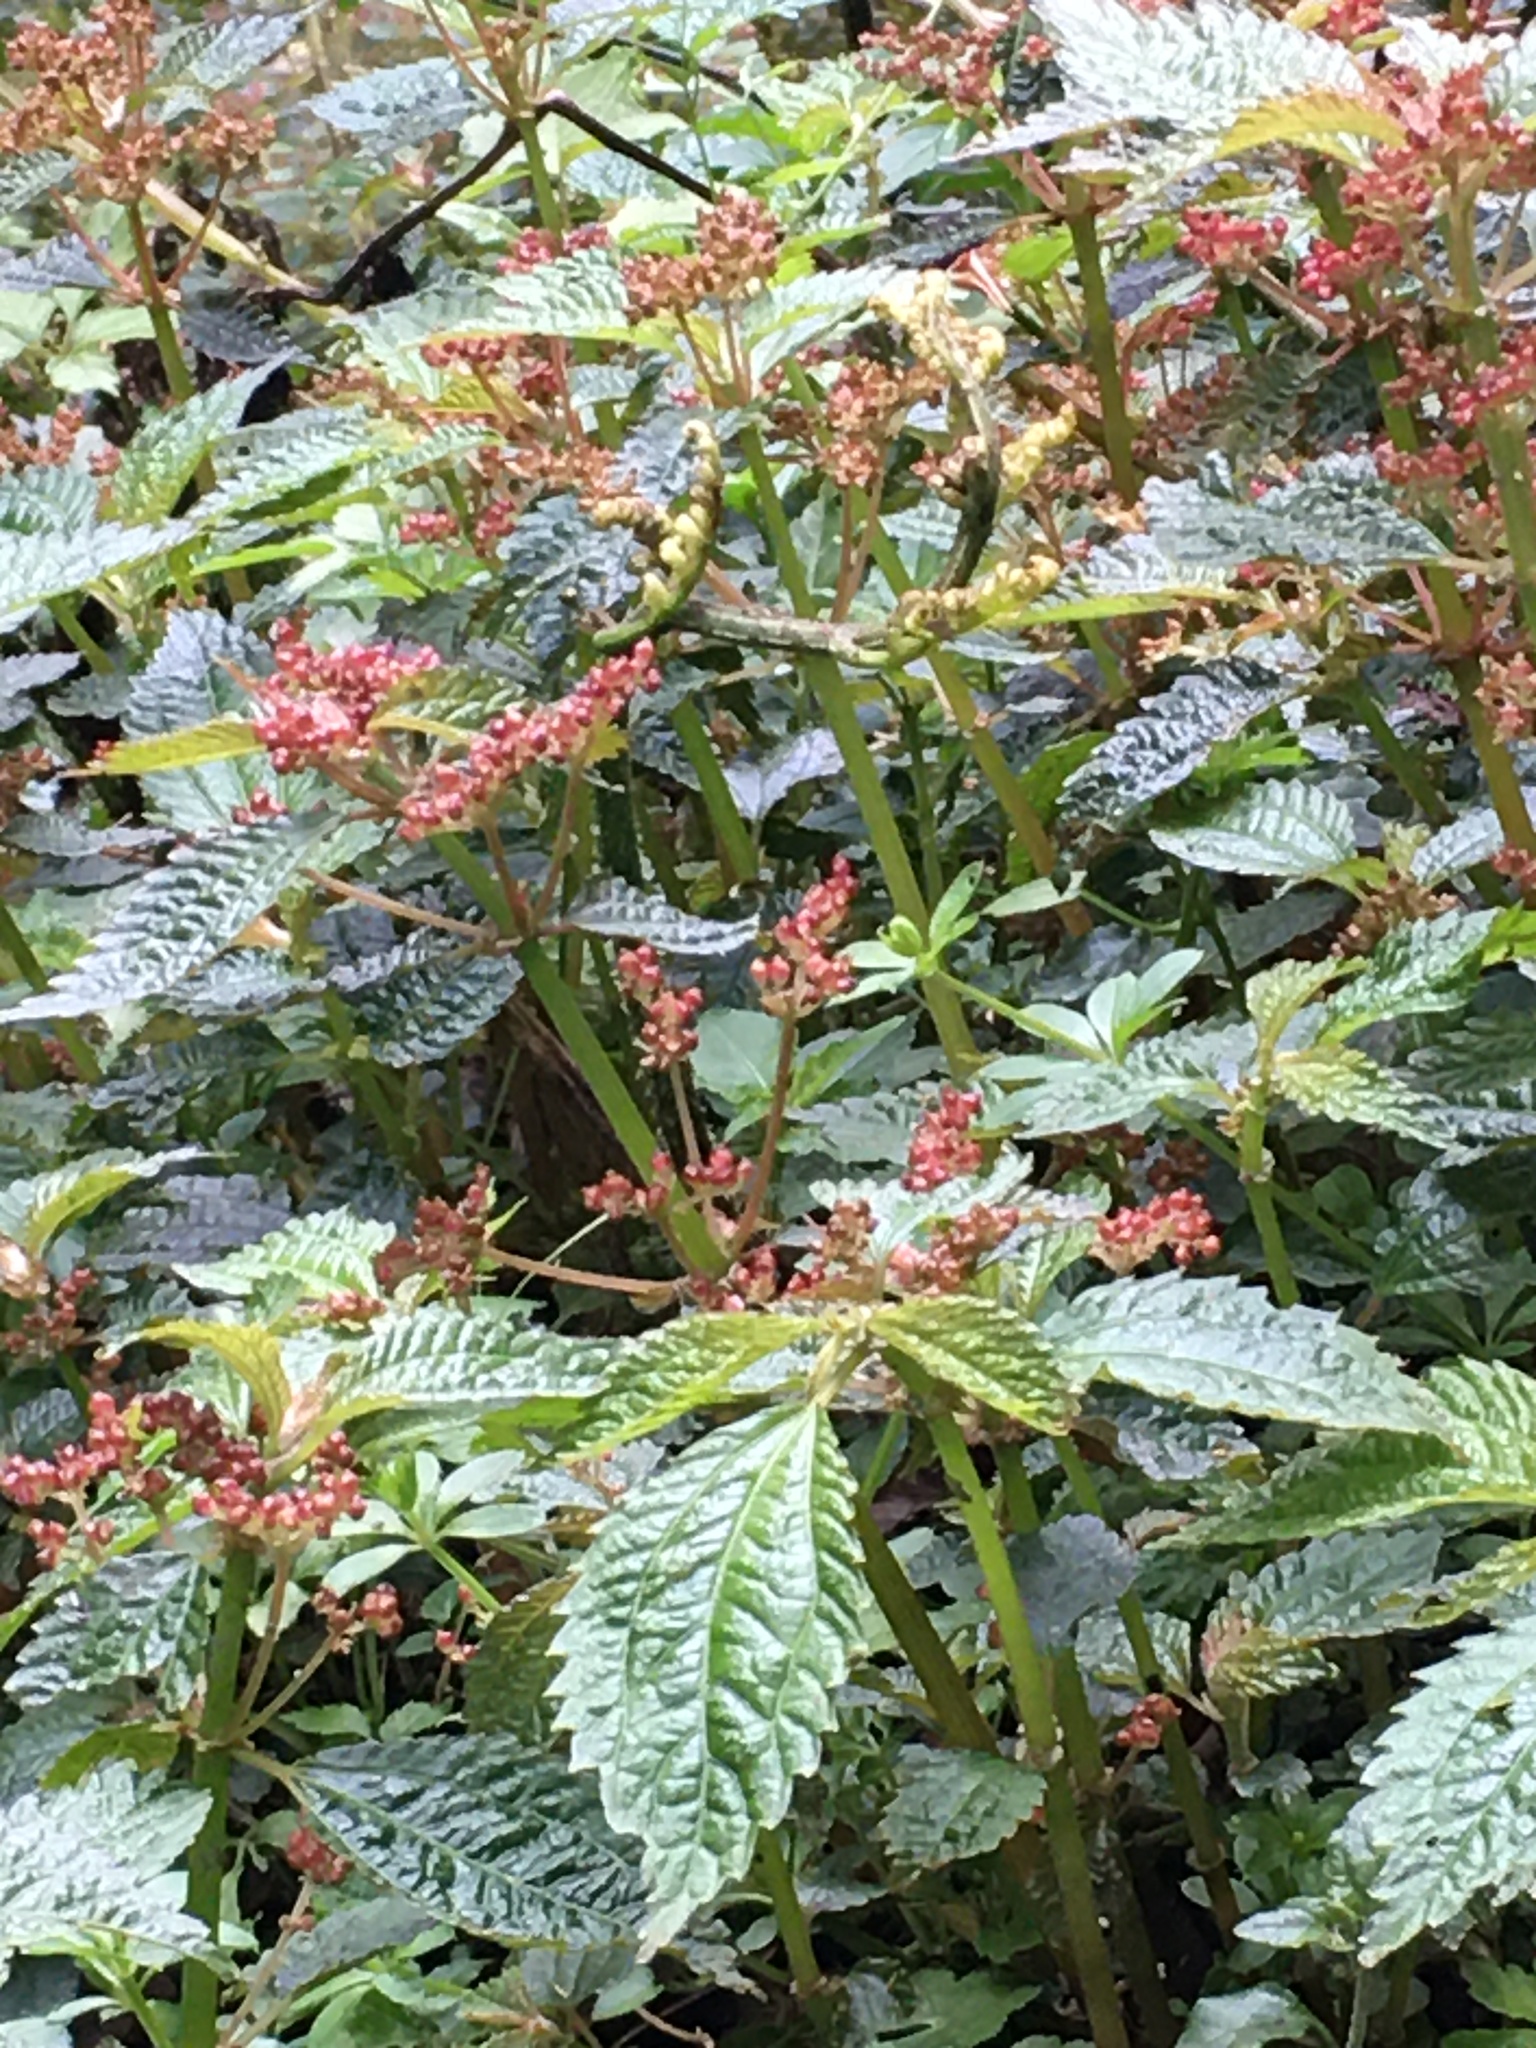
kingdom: Plantae
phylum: Tracheophyta
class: Magnoliopsida
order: Rosales
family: Urticaceae
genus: Pilea
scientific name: Pilea brevicornuta
